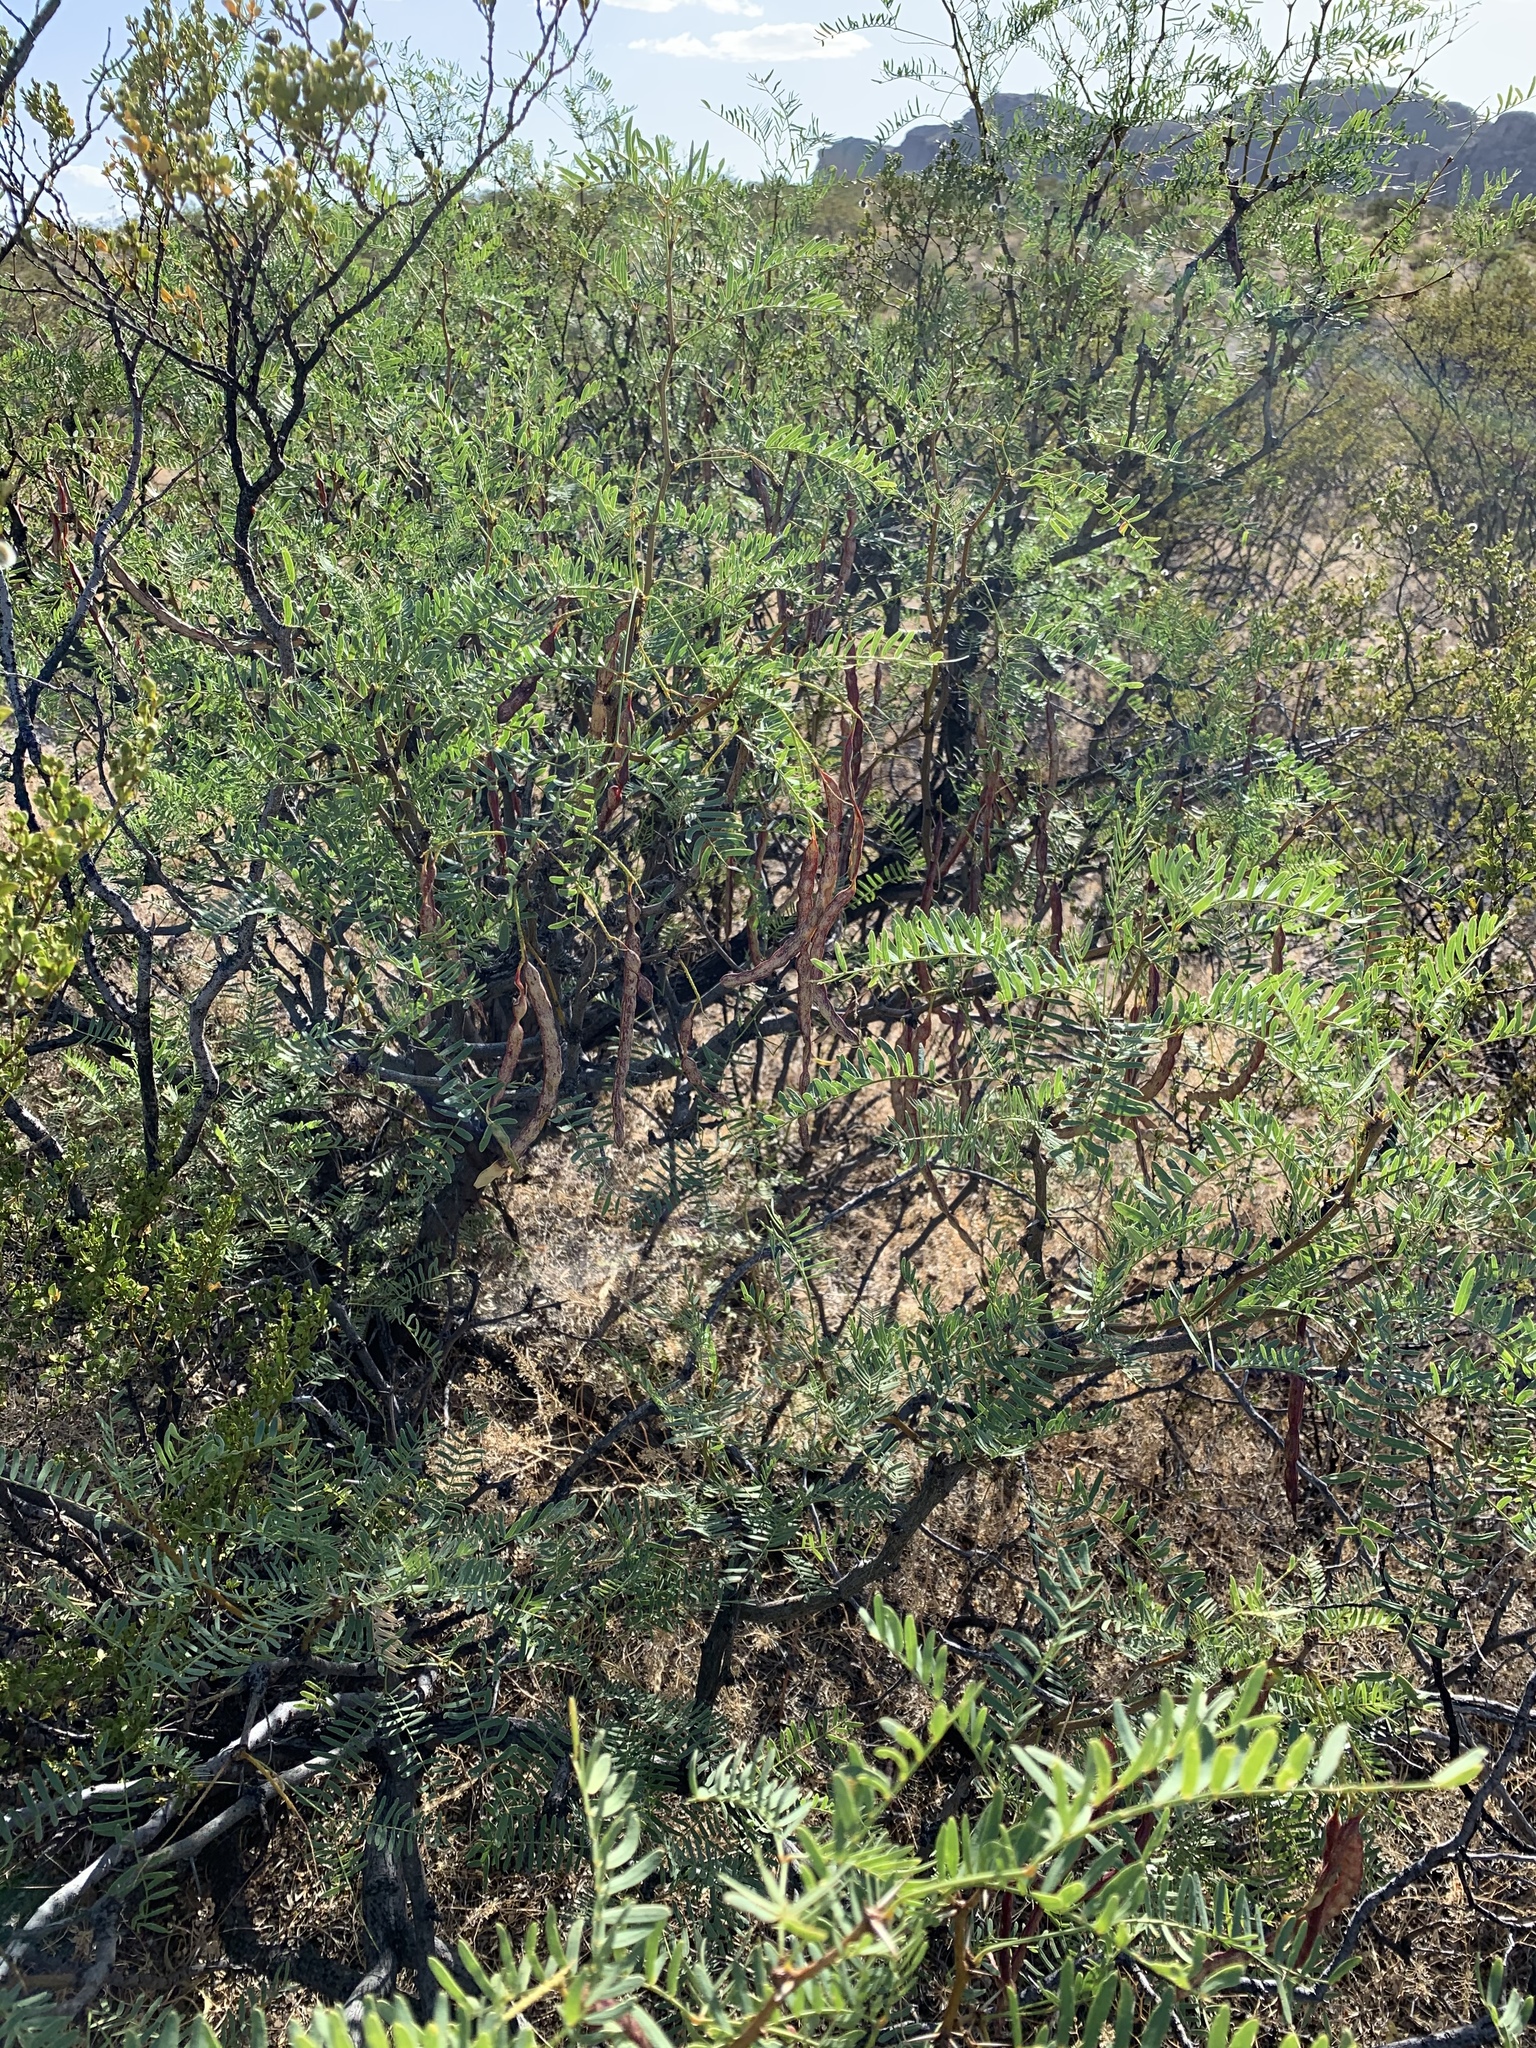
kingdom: Plantae
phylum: Tracheophyta
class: Magnoliopsida
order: Fabales
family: Fabaceae
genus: Prosopis
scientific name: Prosopis glandulosa
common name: Honey mesquite
